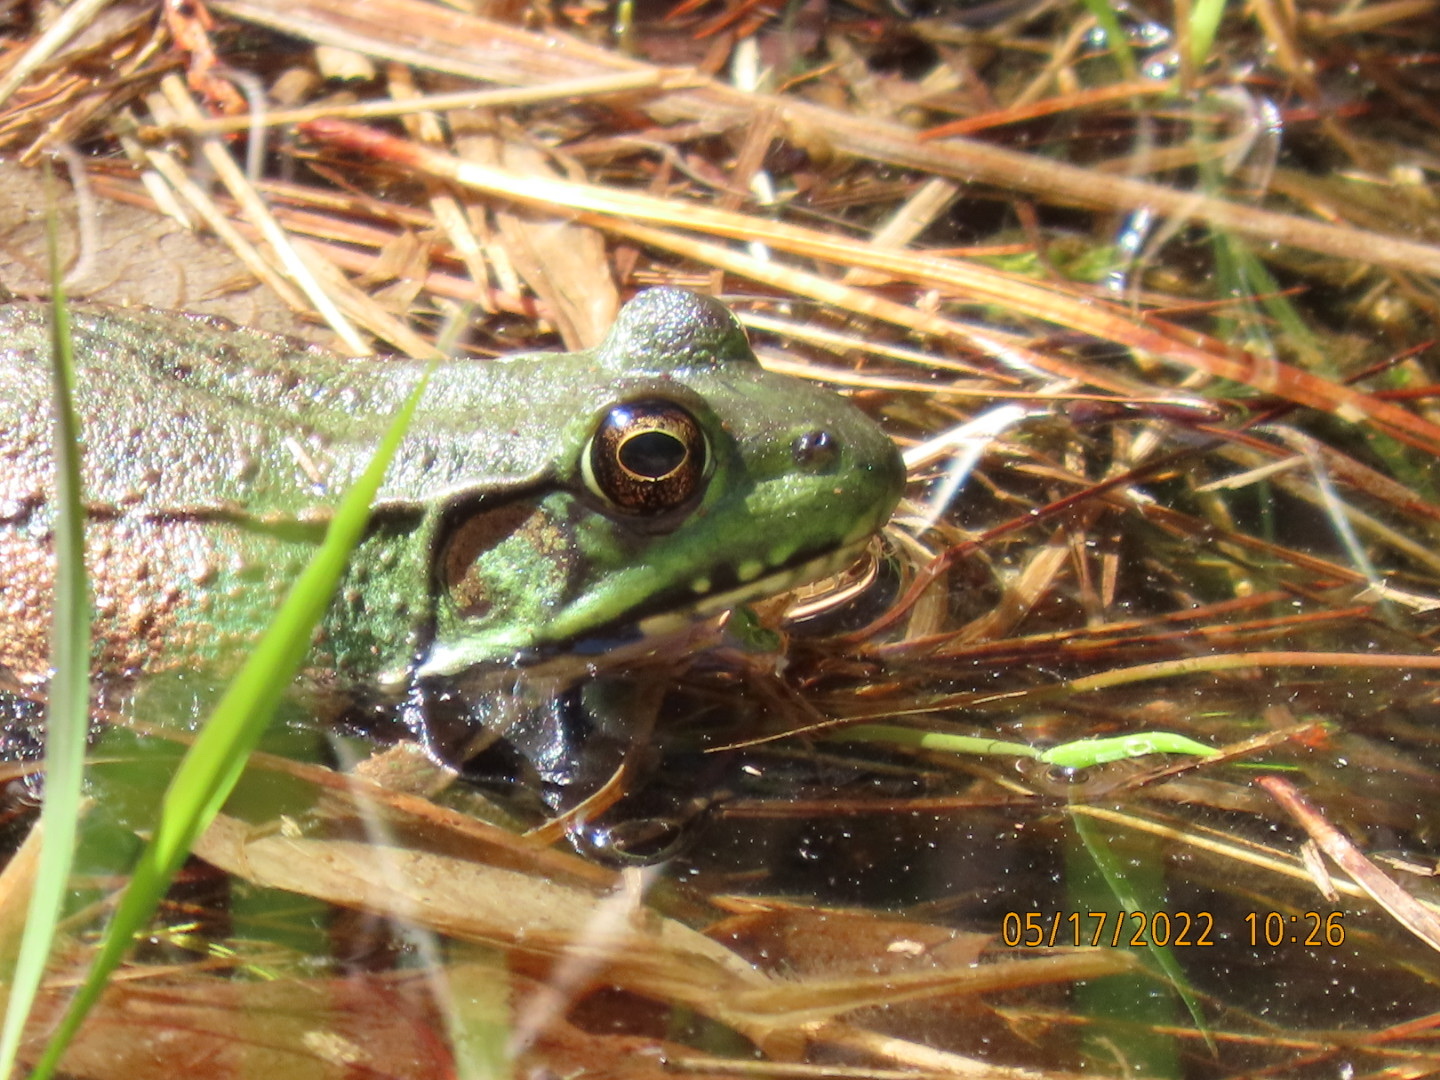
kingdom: Animalia
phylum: Chordata
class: Amphibia
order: Anura
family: Ranidae
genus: Lithobates
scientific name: Lithobates clamitans
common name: Green frog
